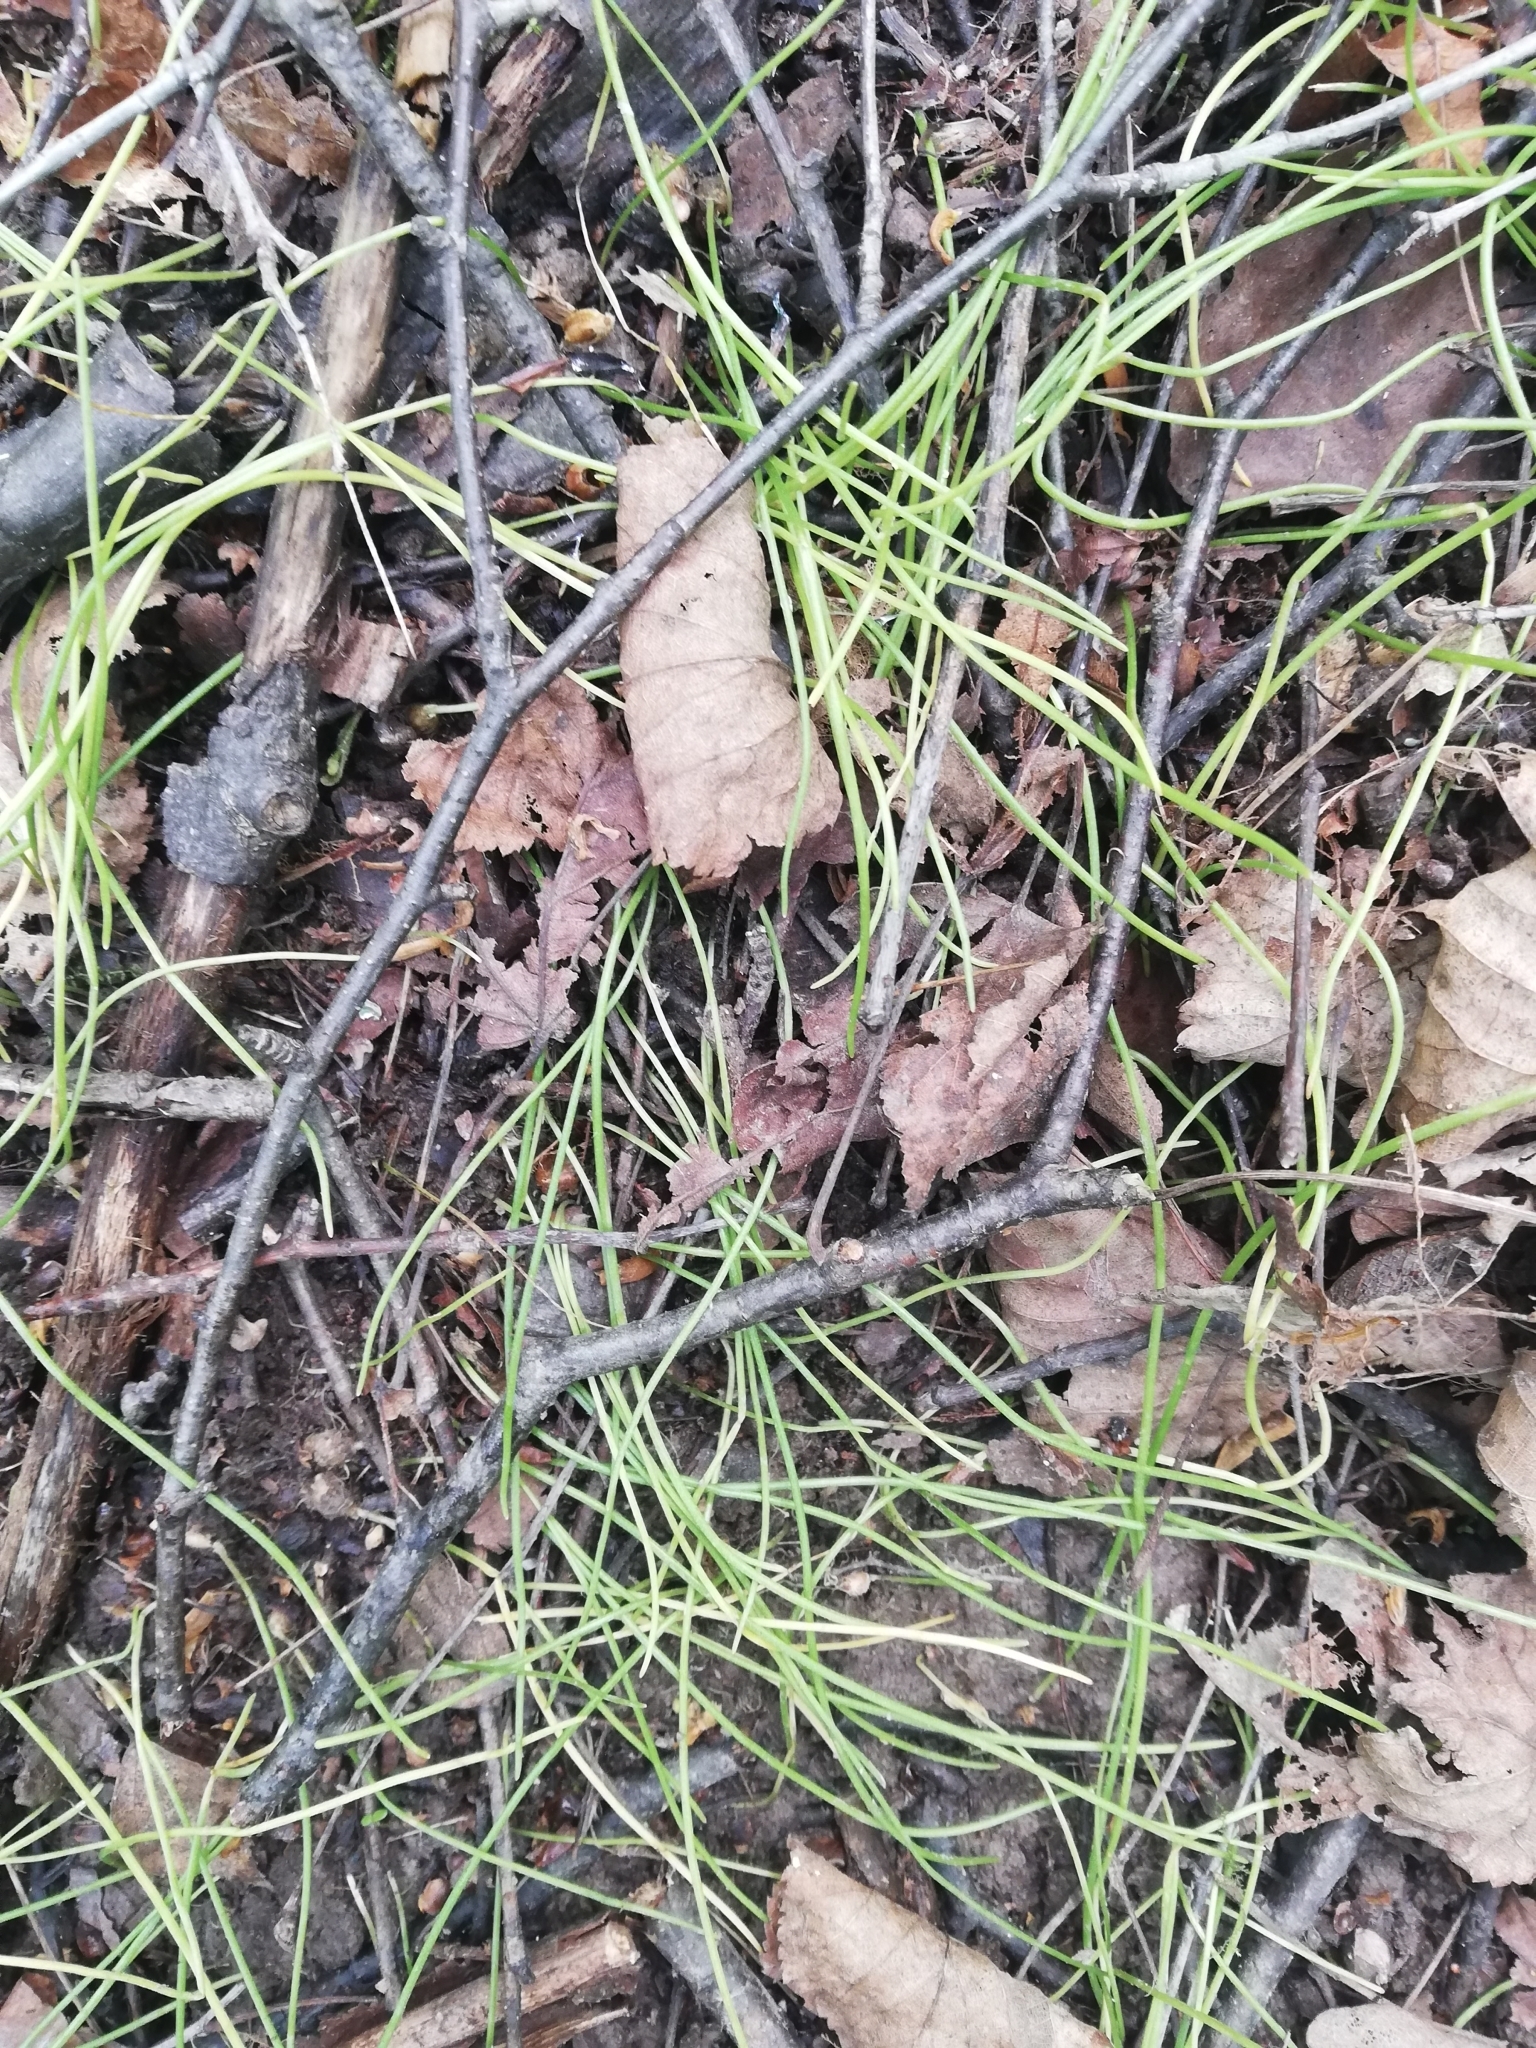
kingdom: Plantae
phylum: Tracheophyta
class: Liliopsida
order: Liliales
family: Liliaceae
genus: Gagea
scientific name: Gagea minima
